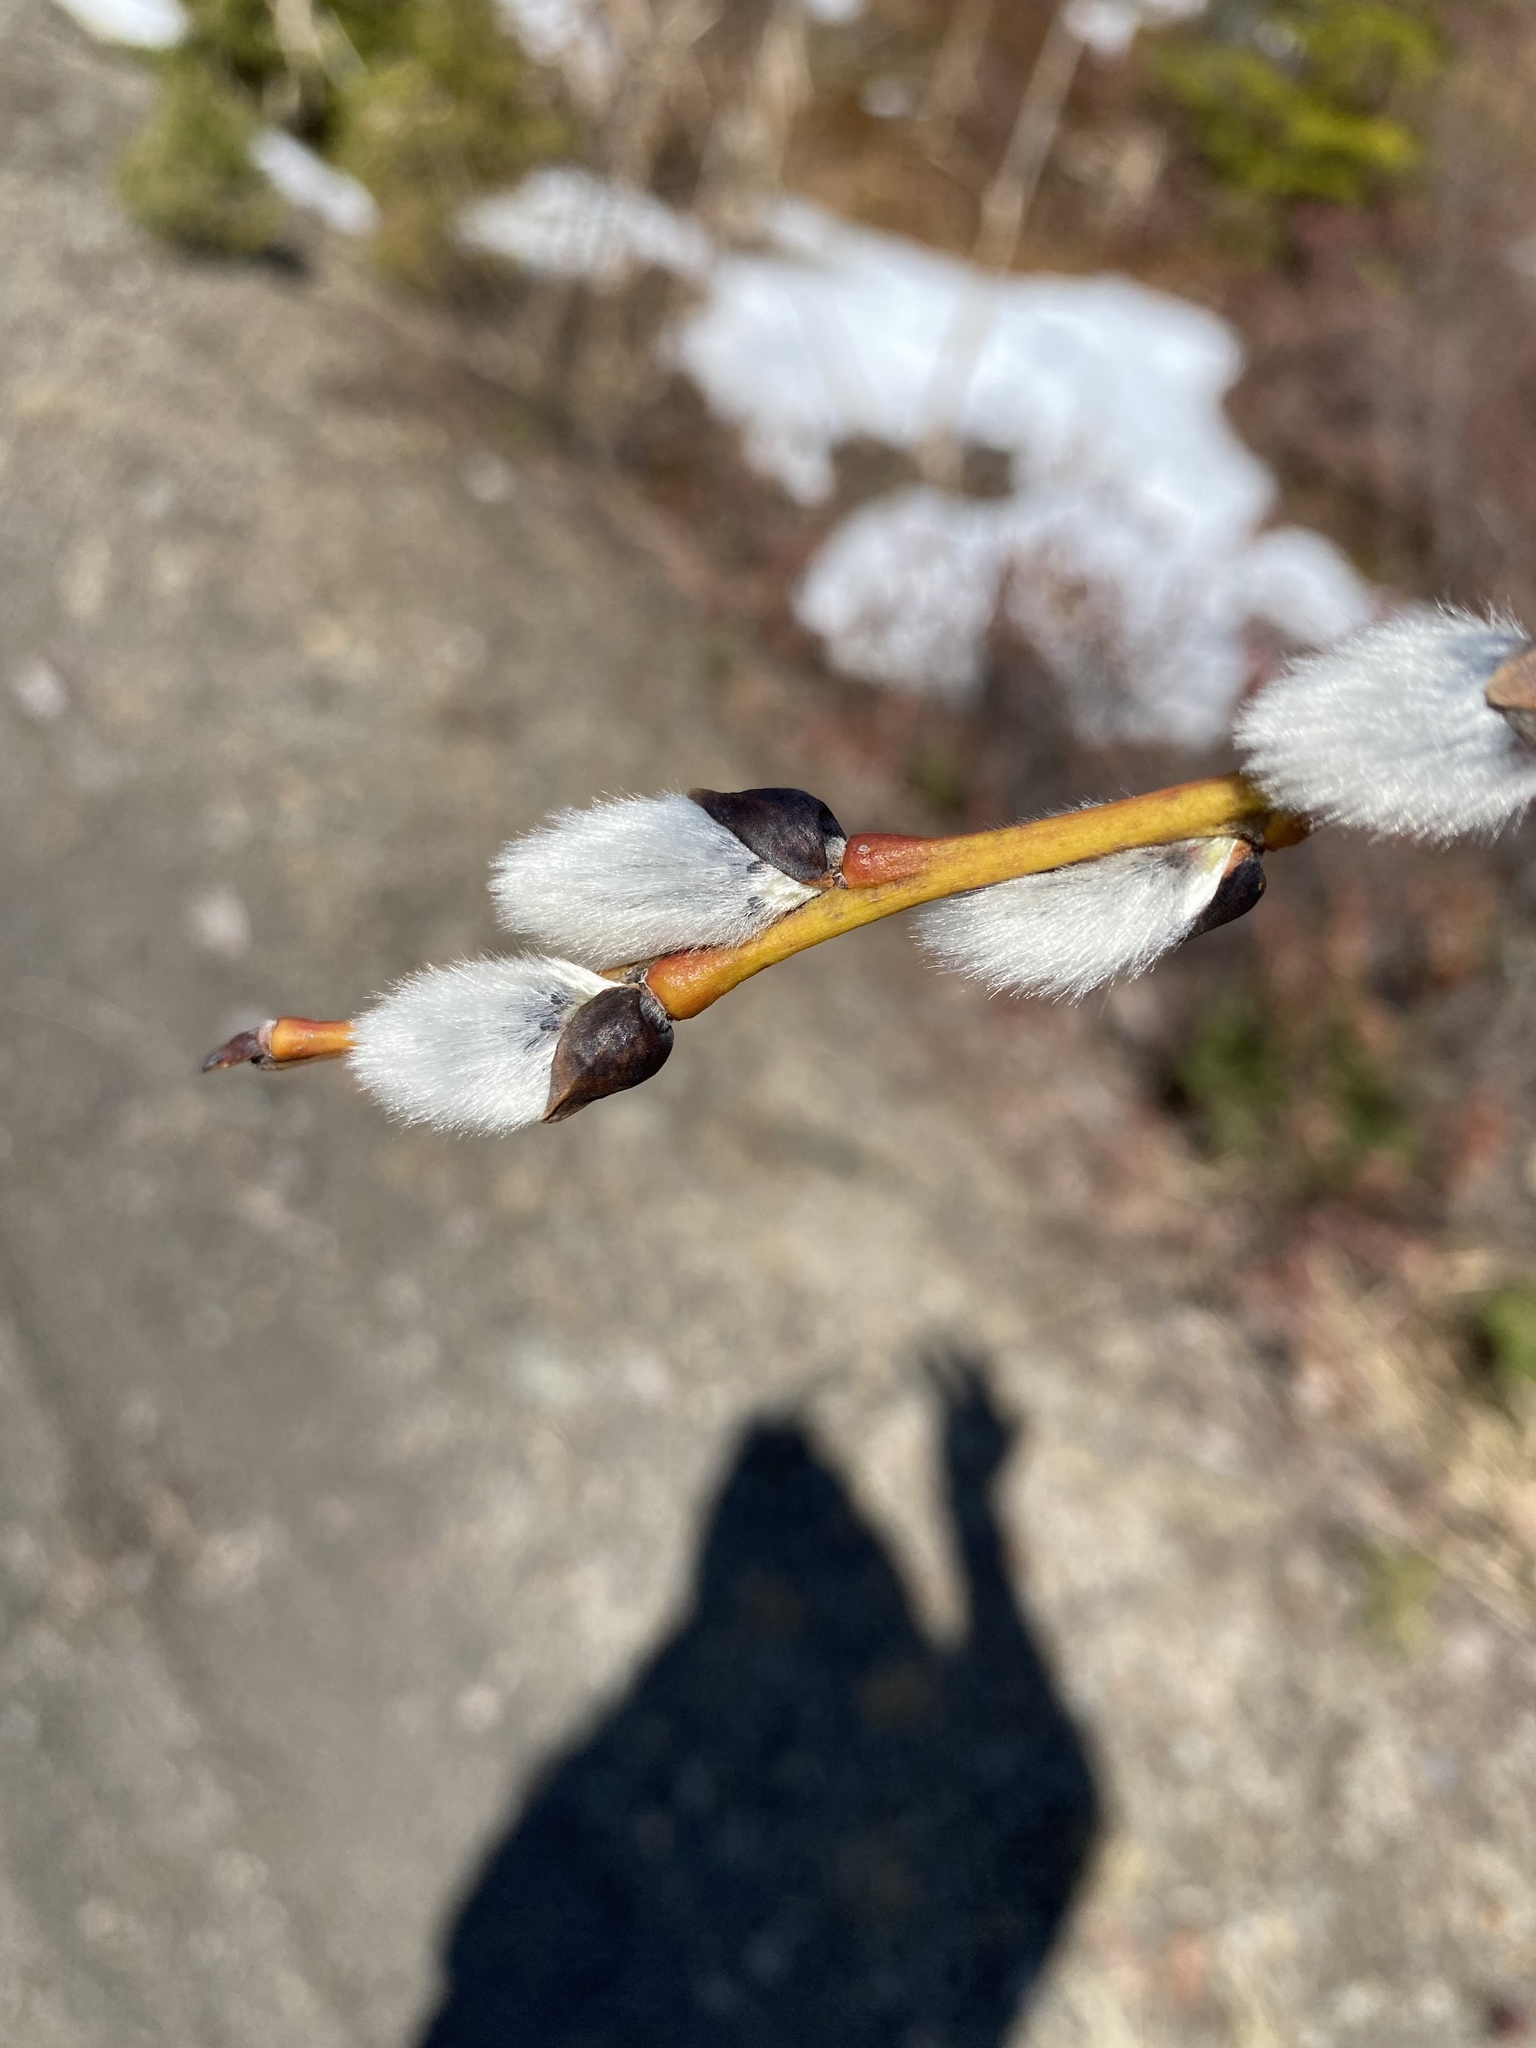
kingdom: Plantae
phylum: Tracheophyta
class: Magnoliopsida
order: Malpighiales
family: Salicaceae
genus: Salix
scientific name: Salix discolor
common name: Glaucous willow
